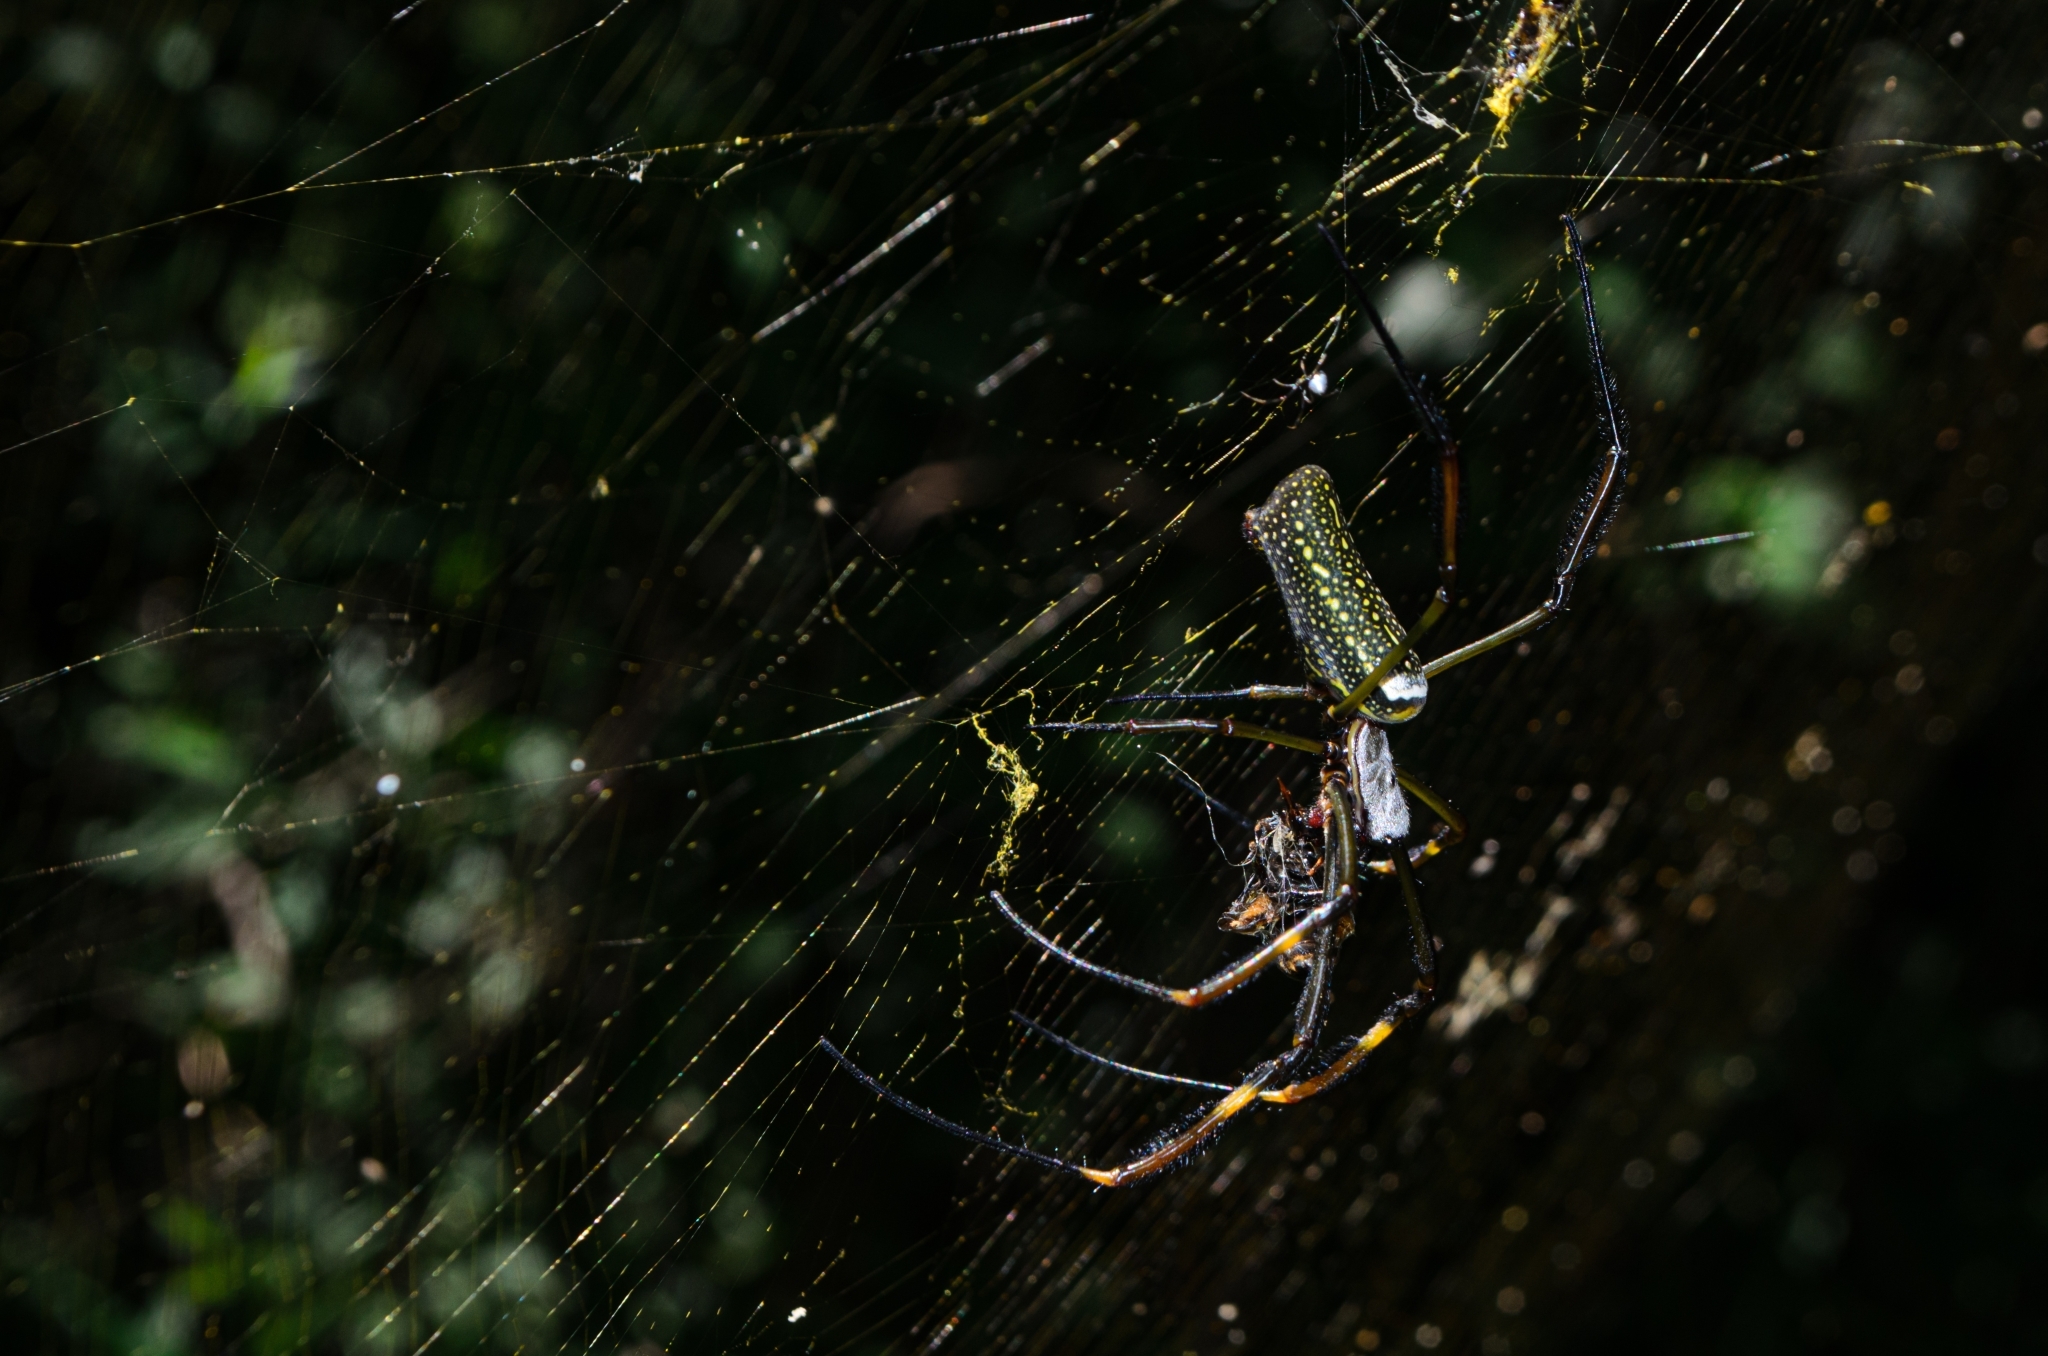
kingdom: Animalia
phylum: Arthropoda
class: Arachnida
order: Araneae
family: Araneidae
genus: Trichonephila
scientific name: Trichonephila clavipes
